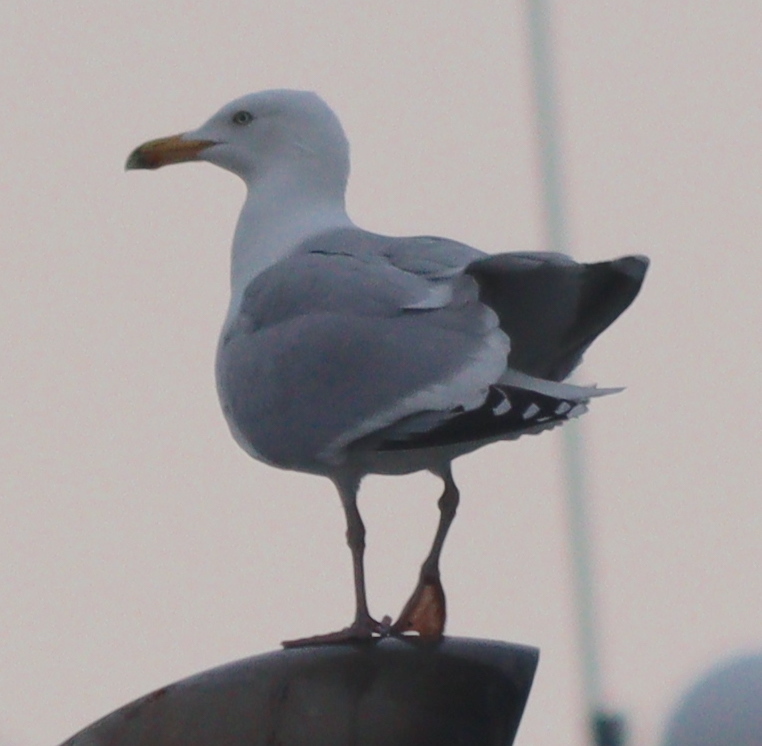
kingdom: Animalia
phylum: Chordata
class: Aves
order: Charadriiformes
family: Laridae
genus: Larus
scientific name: Larus argentatus
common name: Herring gull
